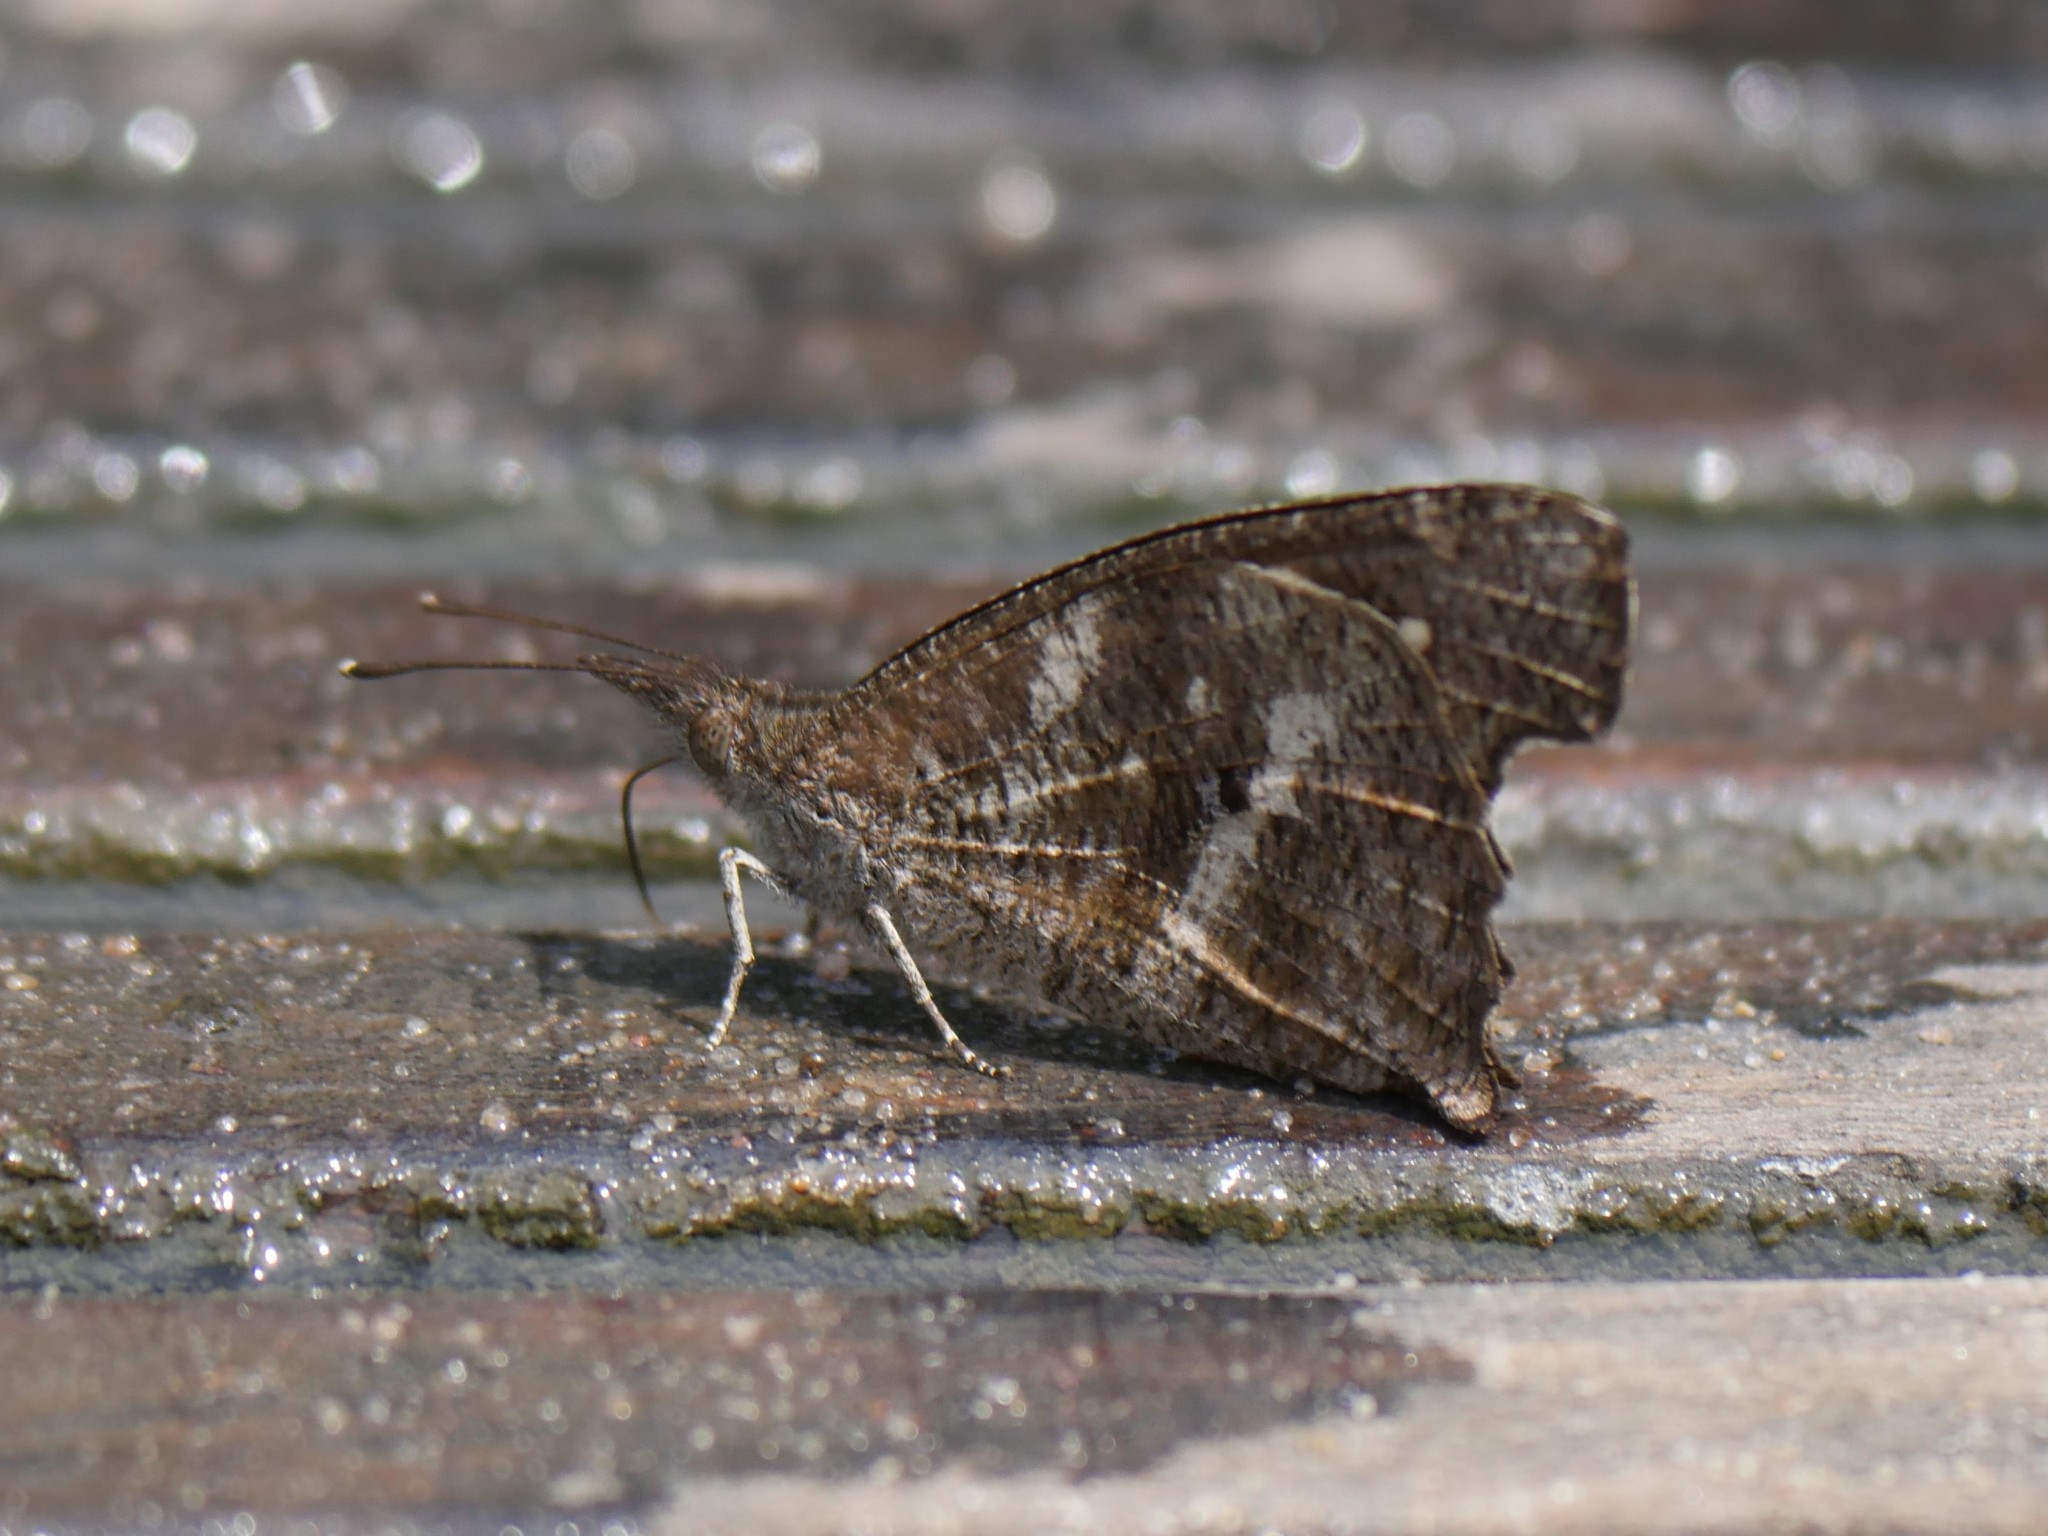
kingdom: Animalia
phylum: Arthropoda
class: Insecta
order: Lepidoptera
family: Nymphalidae
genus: Libythea
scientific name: Libythea labdaca
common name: Northern african snout
